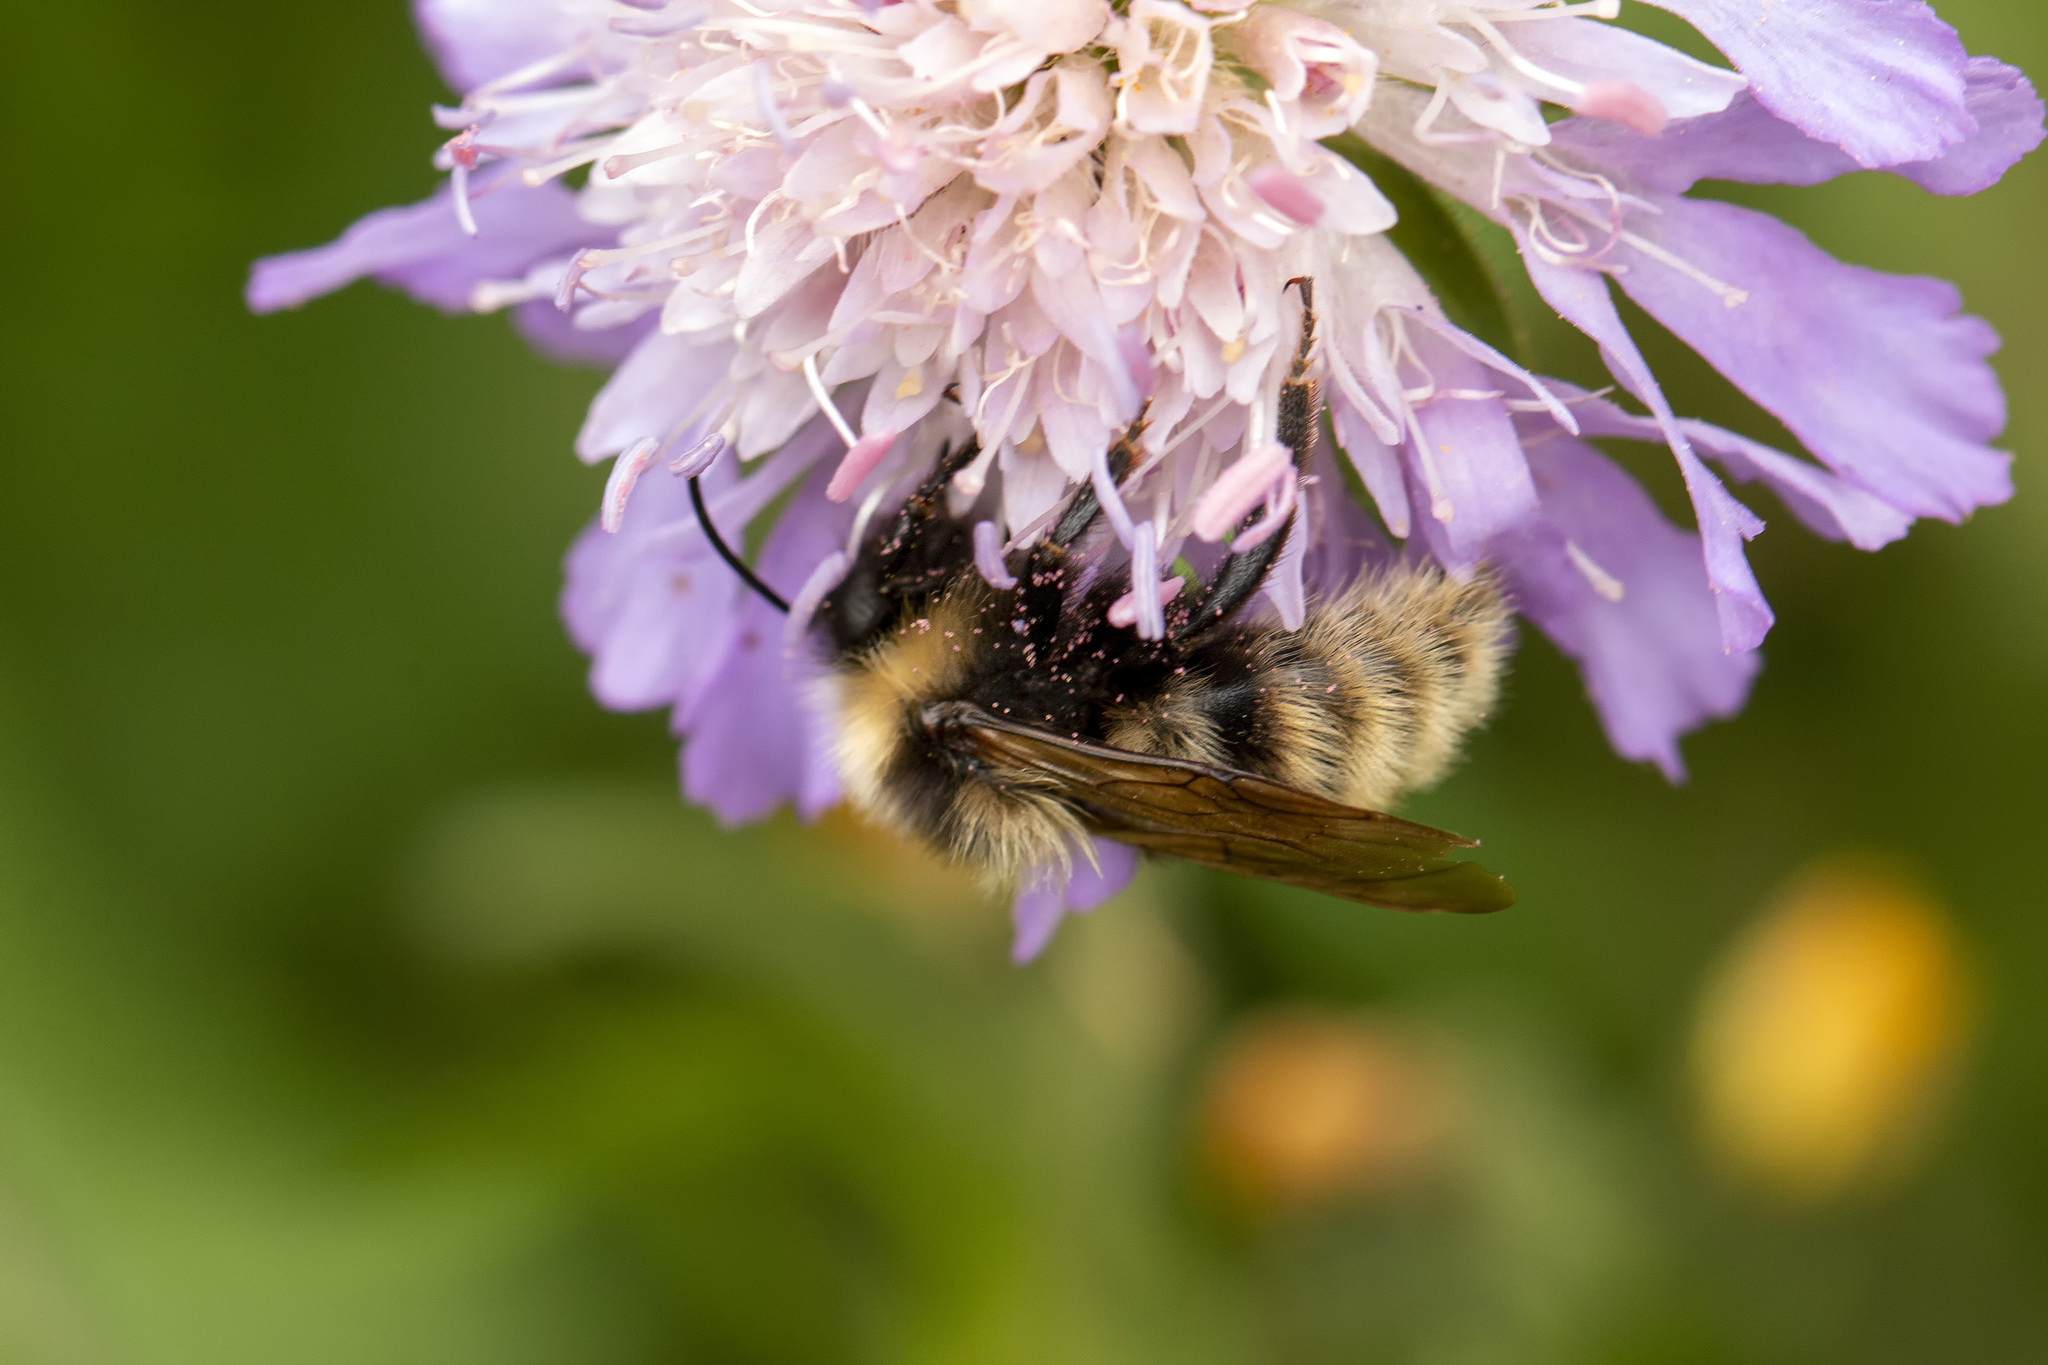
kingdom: Animalia
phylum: Arthropoda
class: Insecta
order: Hymenoptera
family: Apidae
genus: Bombus
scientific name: Bombus campestris
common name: Field cuckoo-bee
